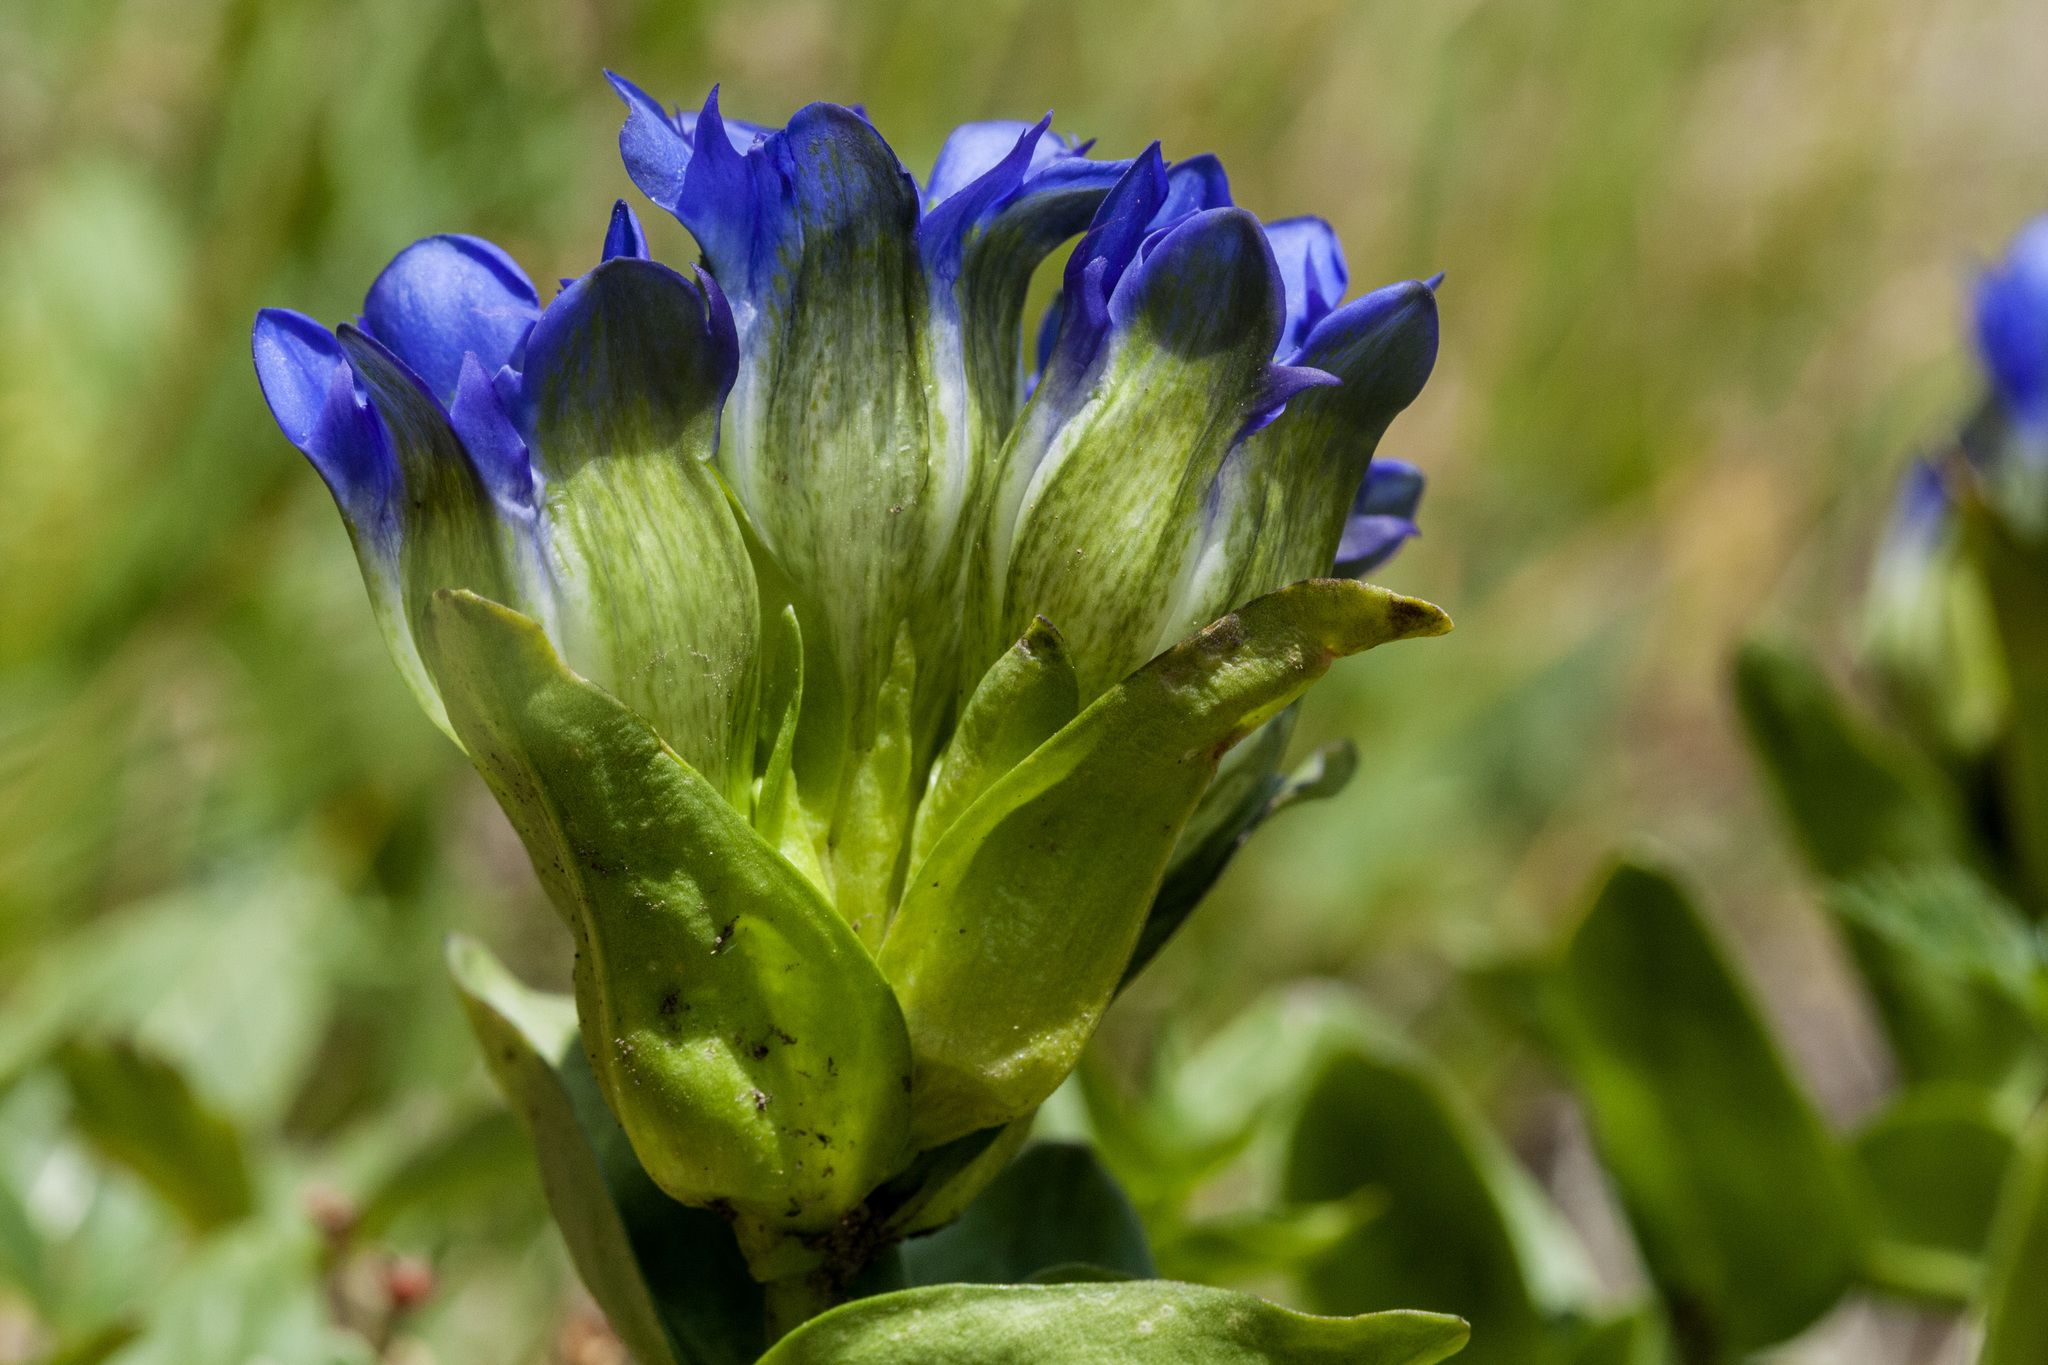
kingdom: Plantae
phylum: Tracheophyta
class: Magnoliopsida
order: Gentianales
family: Gentianaceae
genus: Gentiana
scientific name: Gentiana parryi
